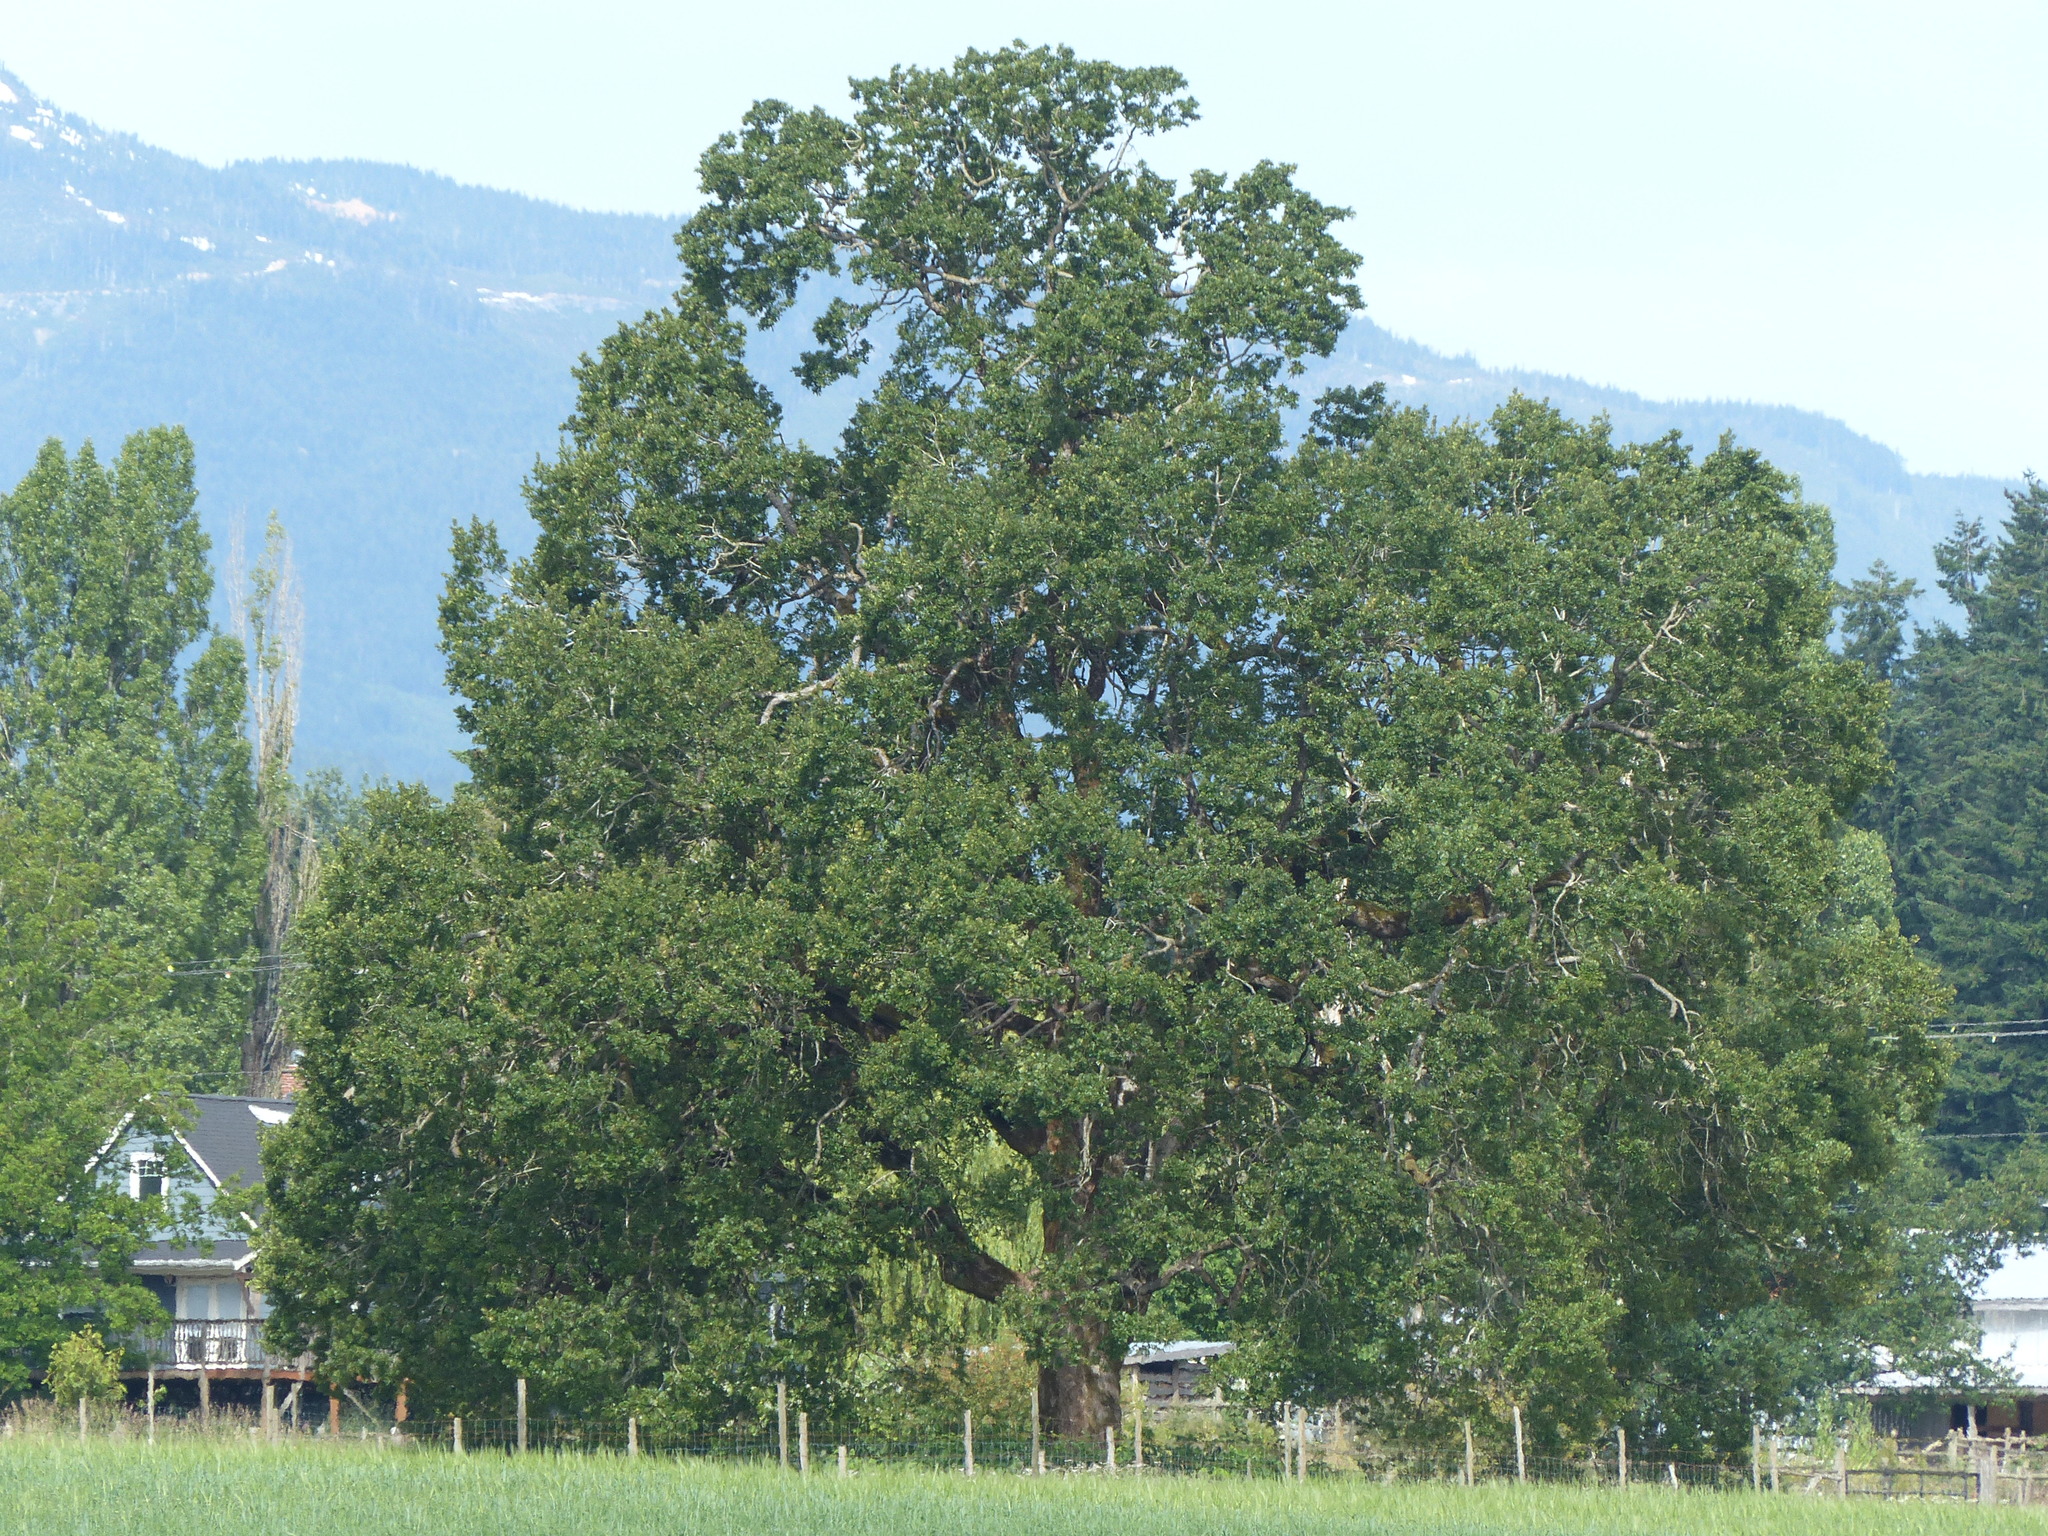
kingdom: Plantae
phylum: Tracheophyta
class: Magnoliopsida
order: Fagales
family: Fagaceae
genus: Quercus
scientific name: Quercus garryana
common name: Garry oak
